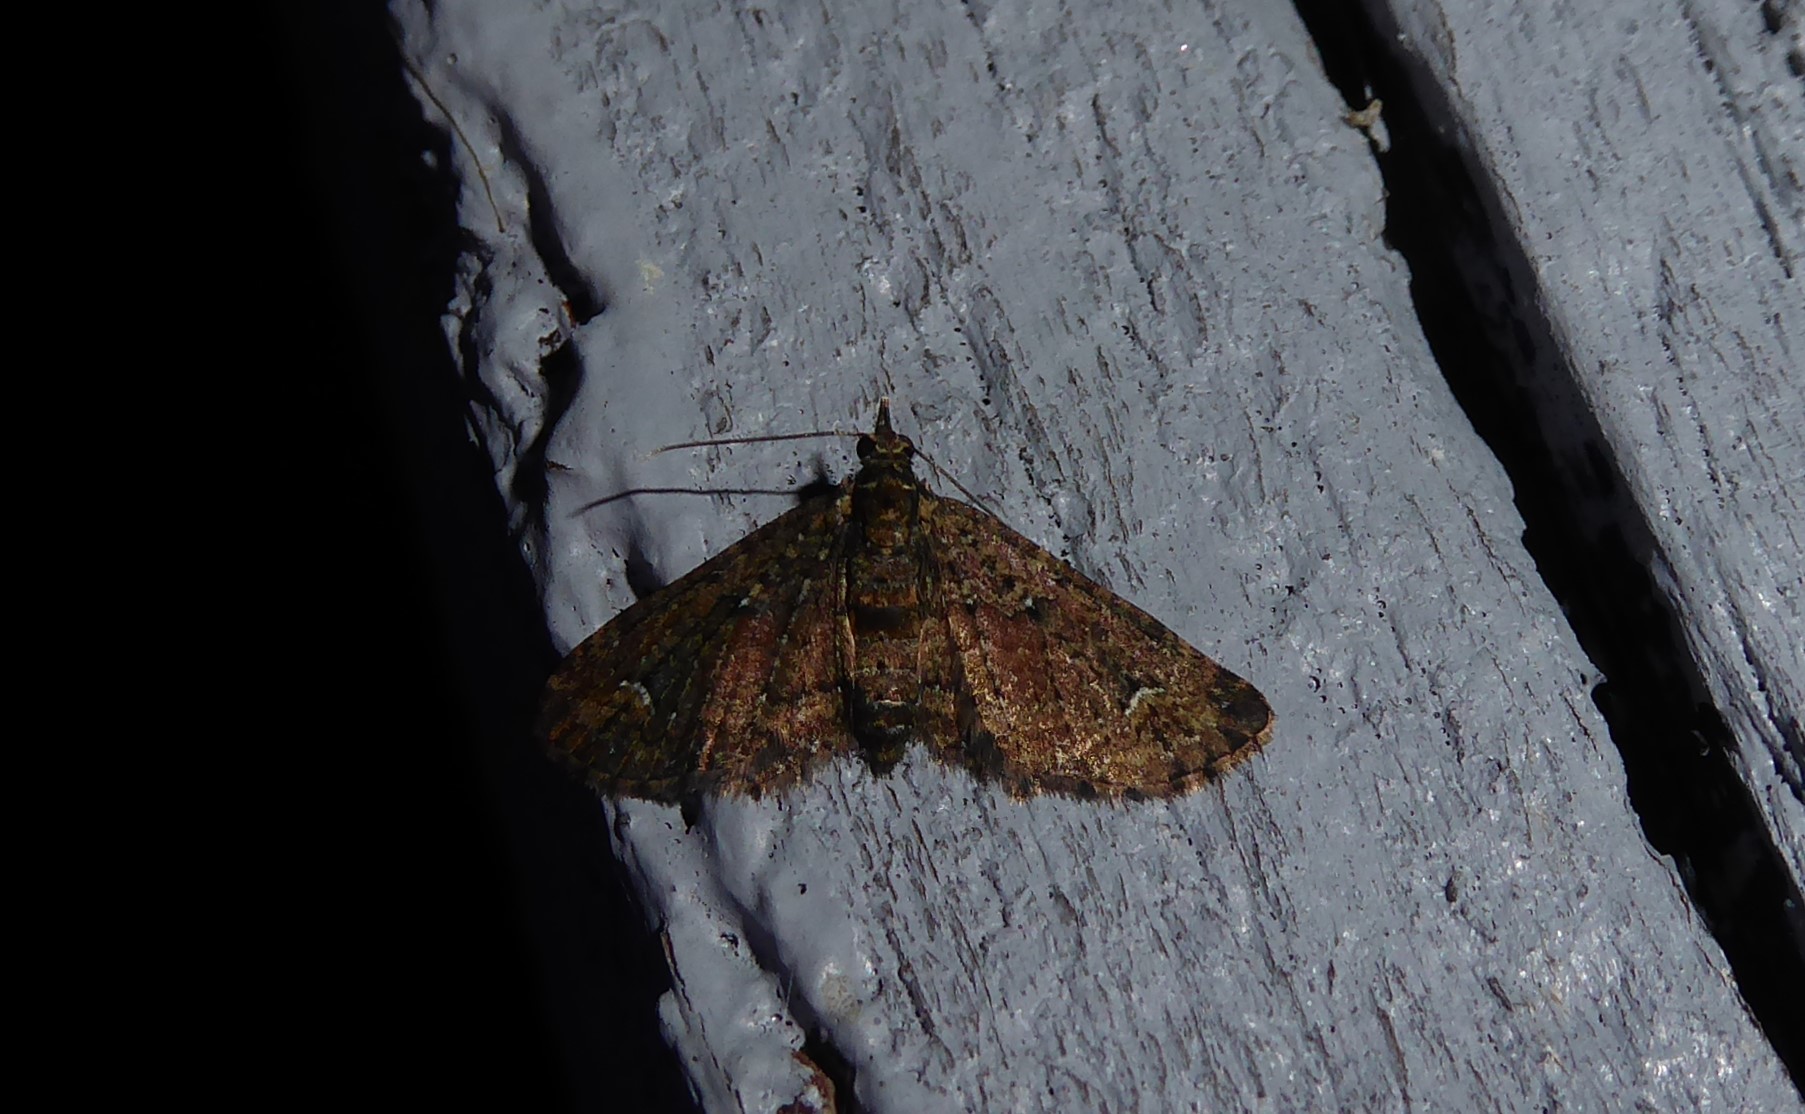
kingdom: Animalia
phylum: Arthropoda
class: Insecta
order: Lepidoptera
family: Geometridae
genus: Pasiphilodes
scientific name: Pasiphilodes testulata
